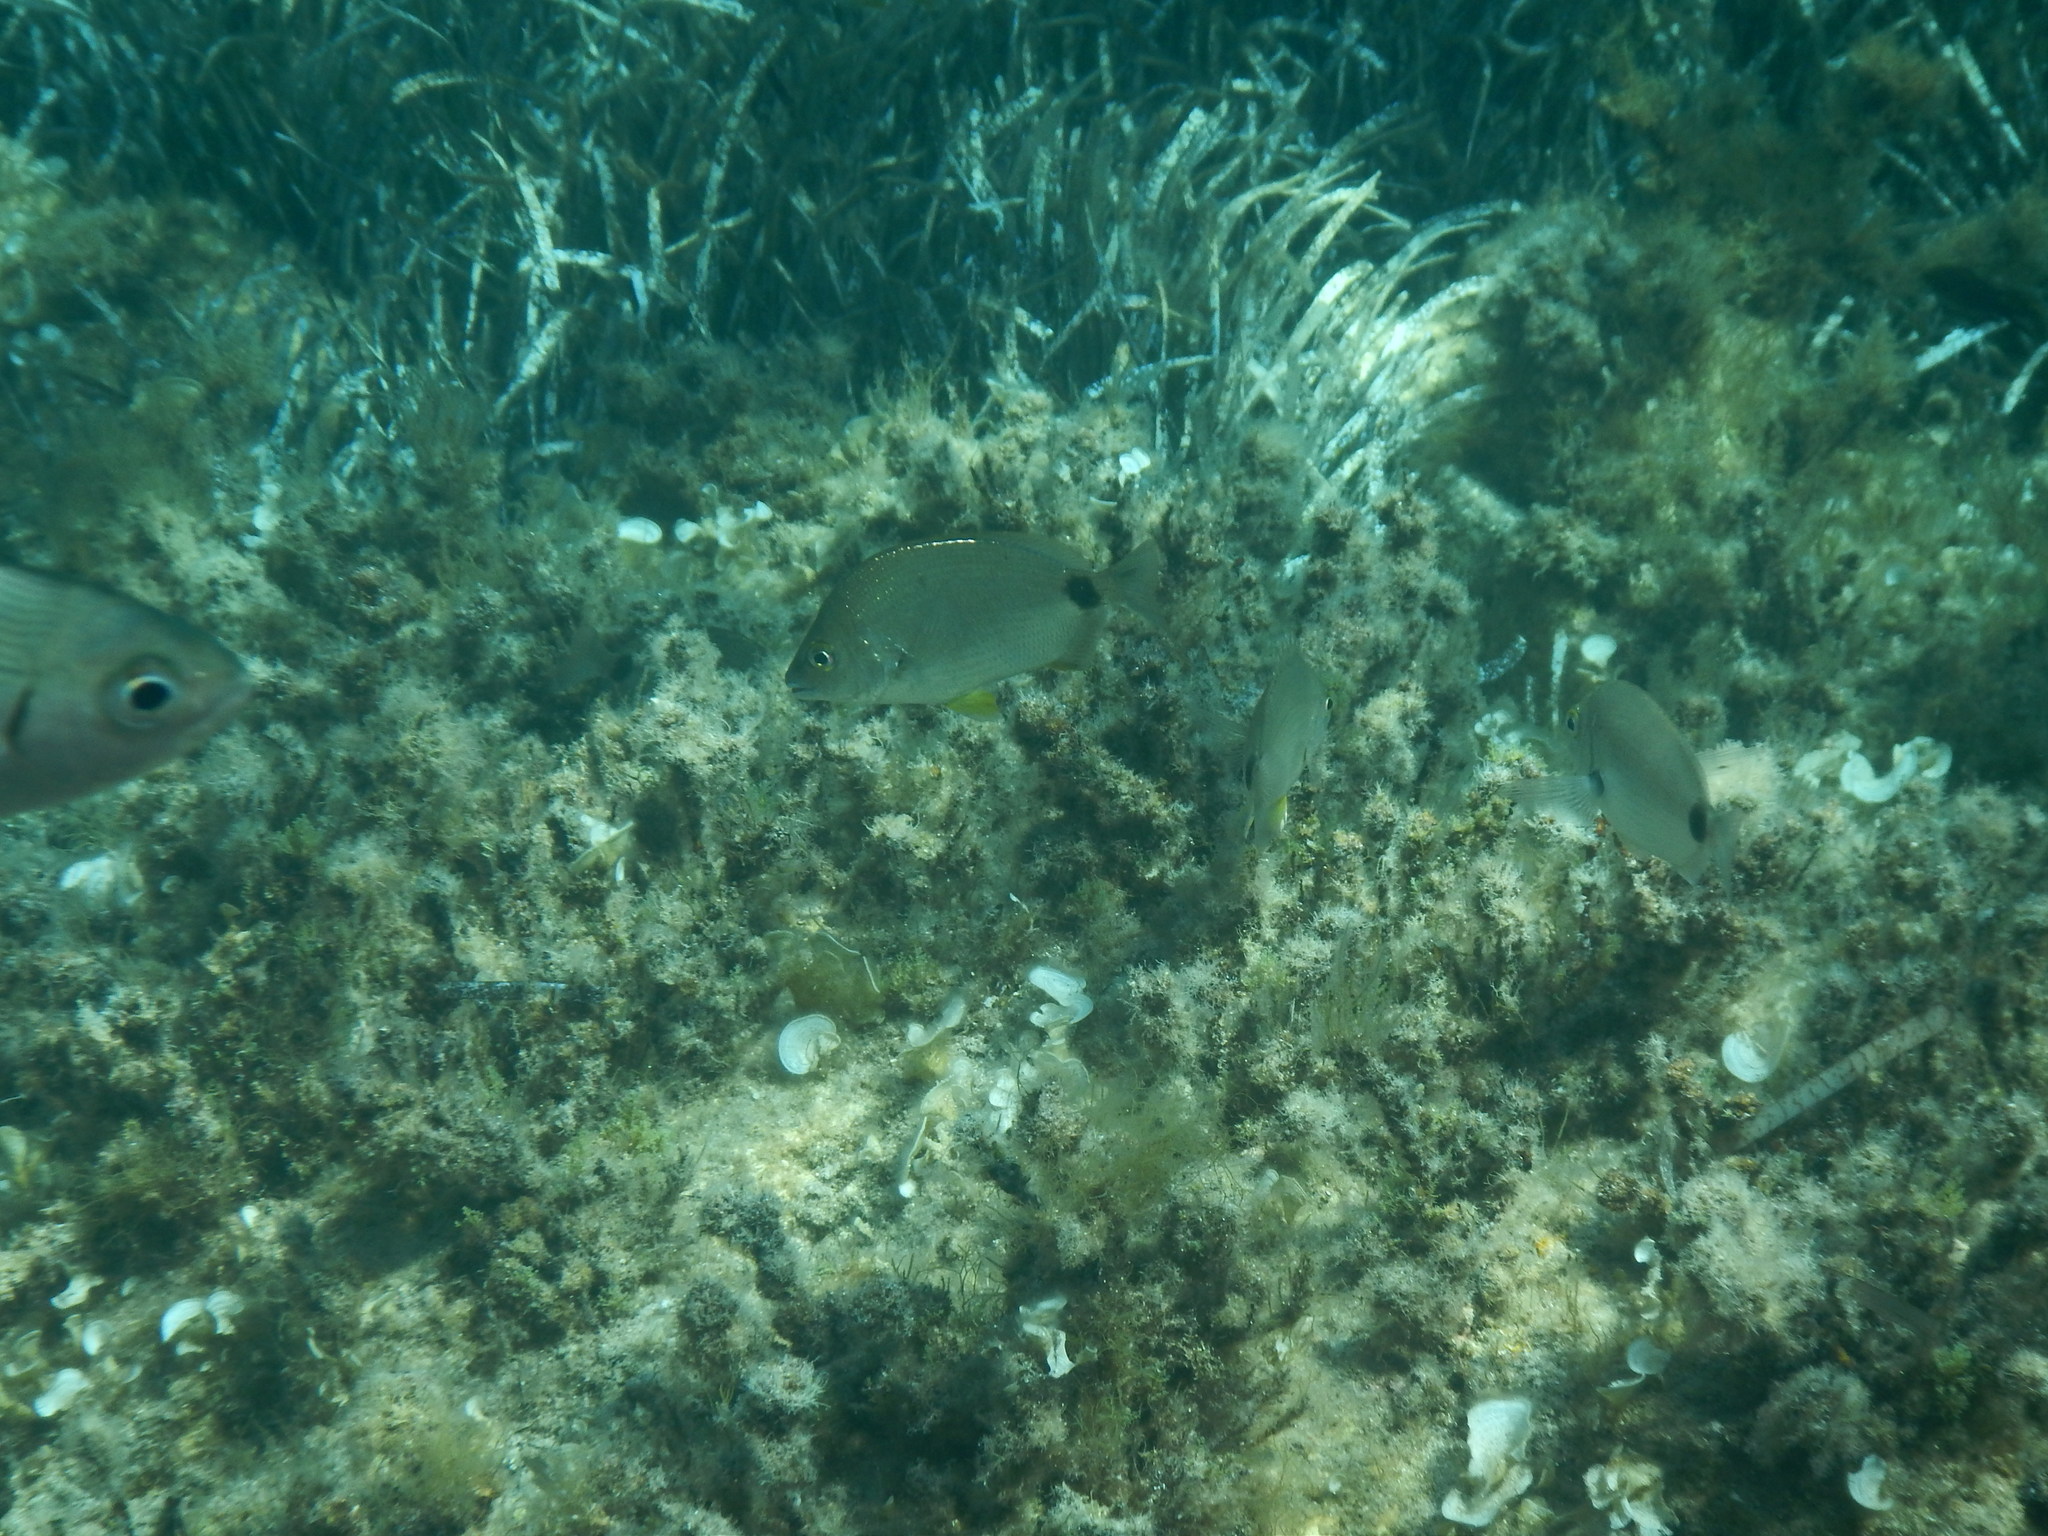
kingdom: Animalia
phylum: Chordata
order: Perciformes
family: Sparidae
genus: Diplodus
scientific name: Diplodus annularis
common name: Annular seabream
